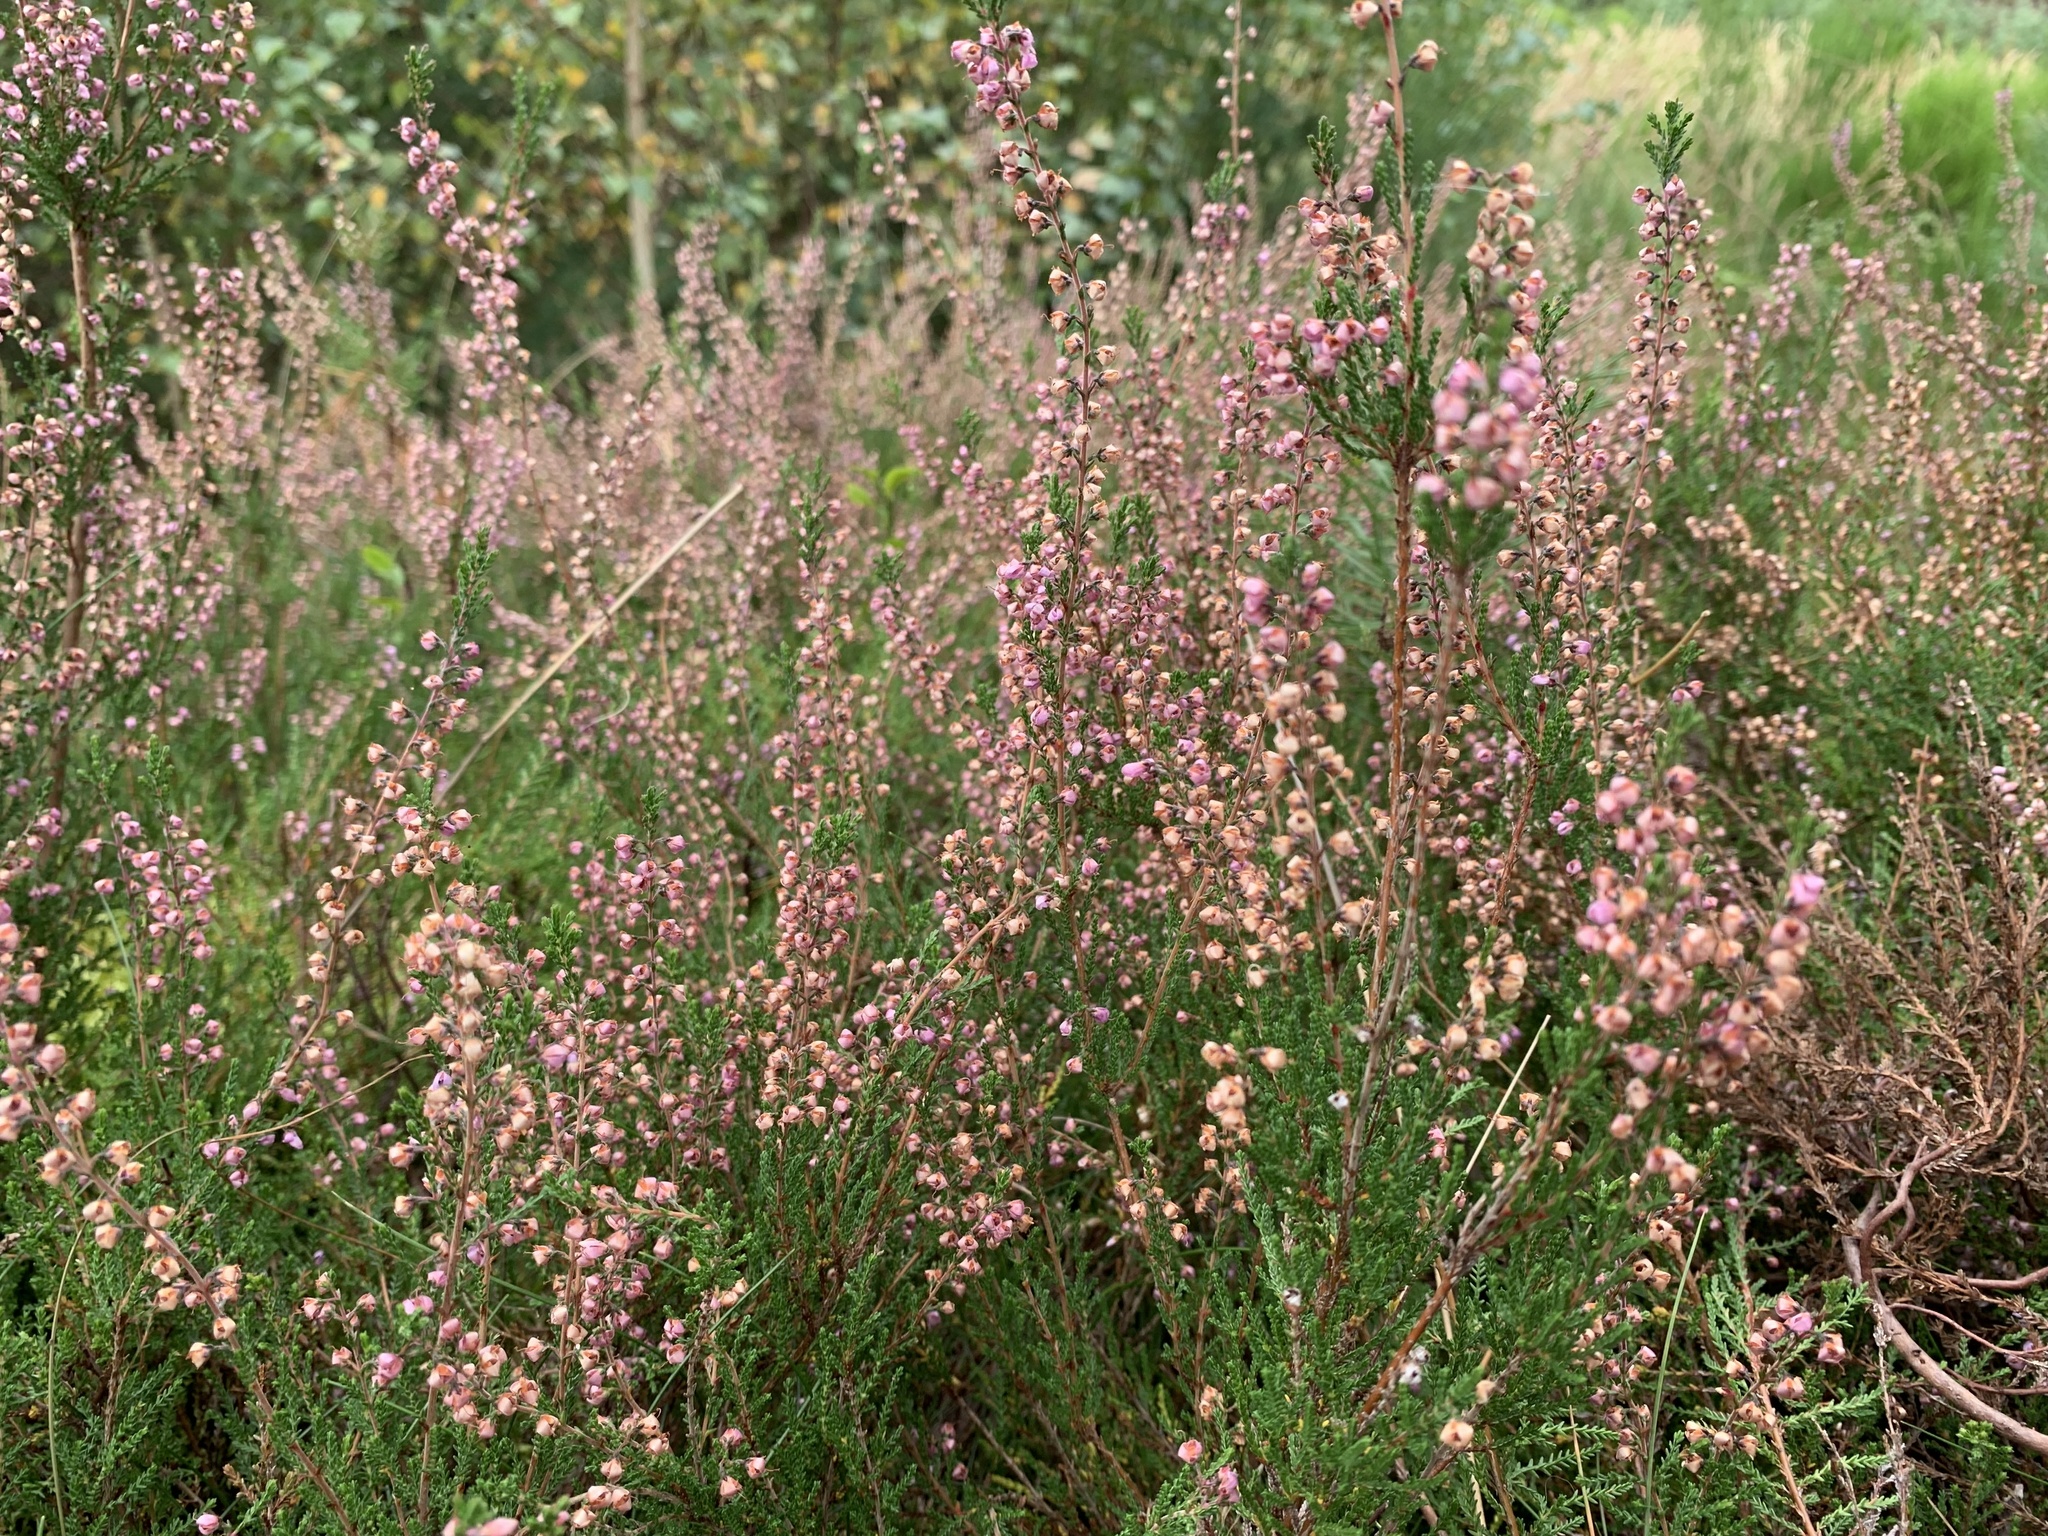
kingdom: Plantae
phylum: Tracheophyta
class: Magnoliopsida
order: Ericales
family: Ericaceae
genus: Calluna
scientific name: Calluna vulgaris
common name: Heather
